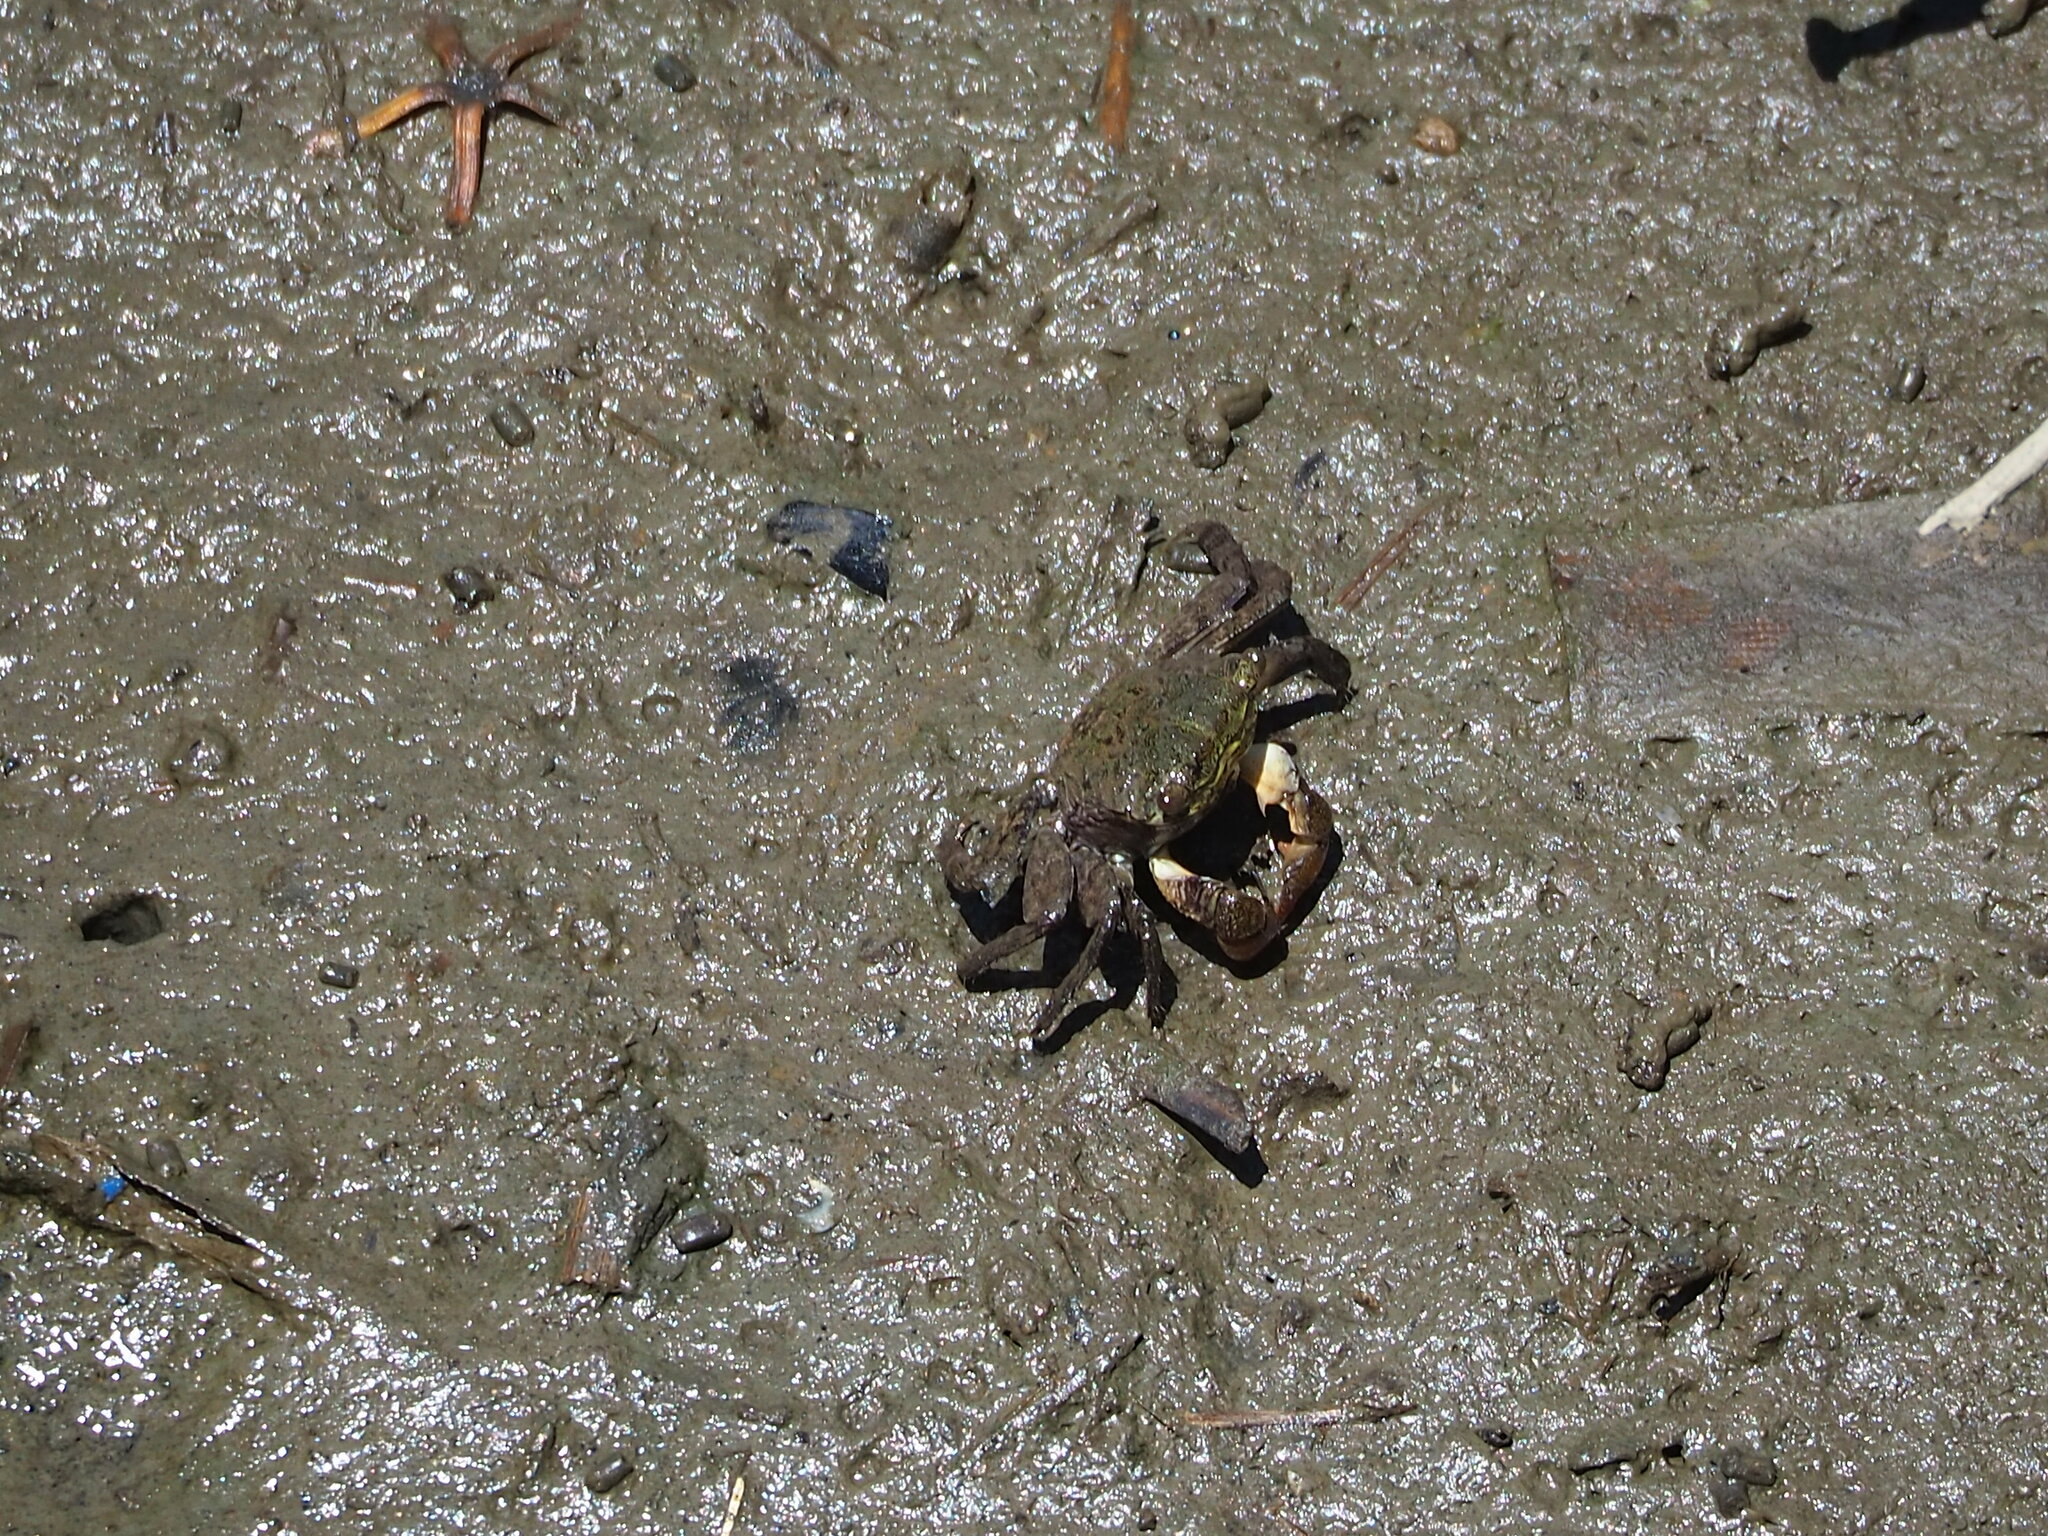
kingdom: Animalia
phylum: Arthropoda
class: Malacostraca
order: Decapoda
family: Sesarmidae
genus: Parasesarma
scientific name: Parasesarma insulare
